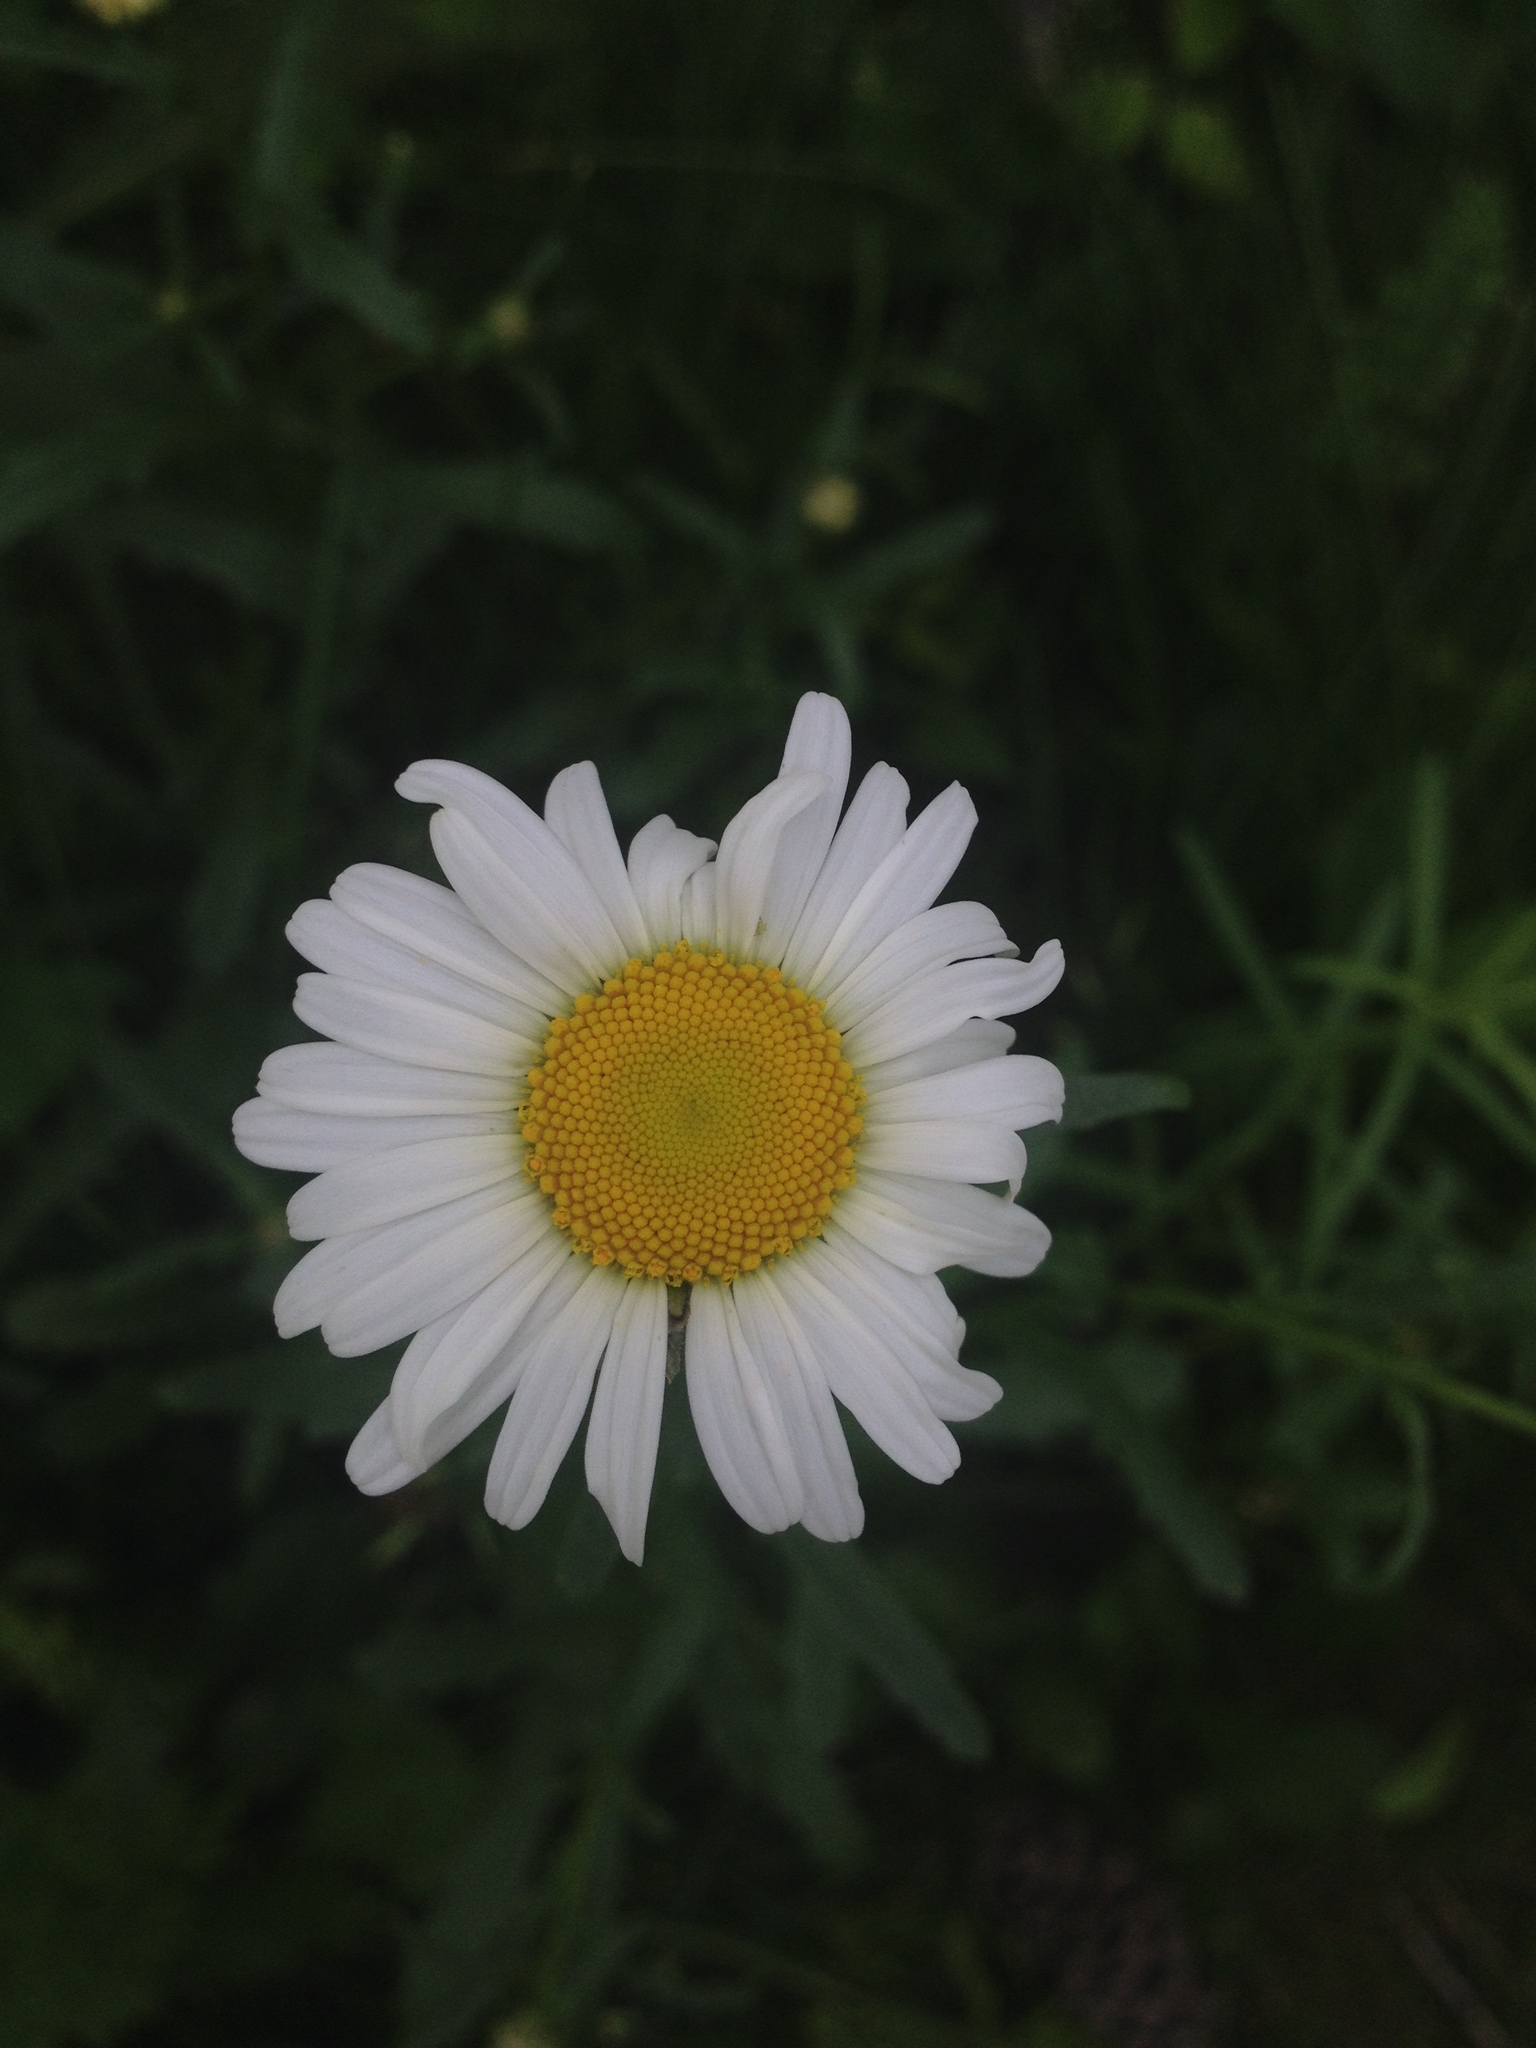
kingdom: Plantae
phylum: Tracheophyta
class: Magnoliopsida
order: Asterales
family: Asteraceae
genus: Leucanthemum
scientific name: Leucanthemum vulgare
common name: Oxeye daisy
